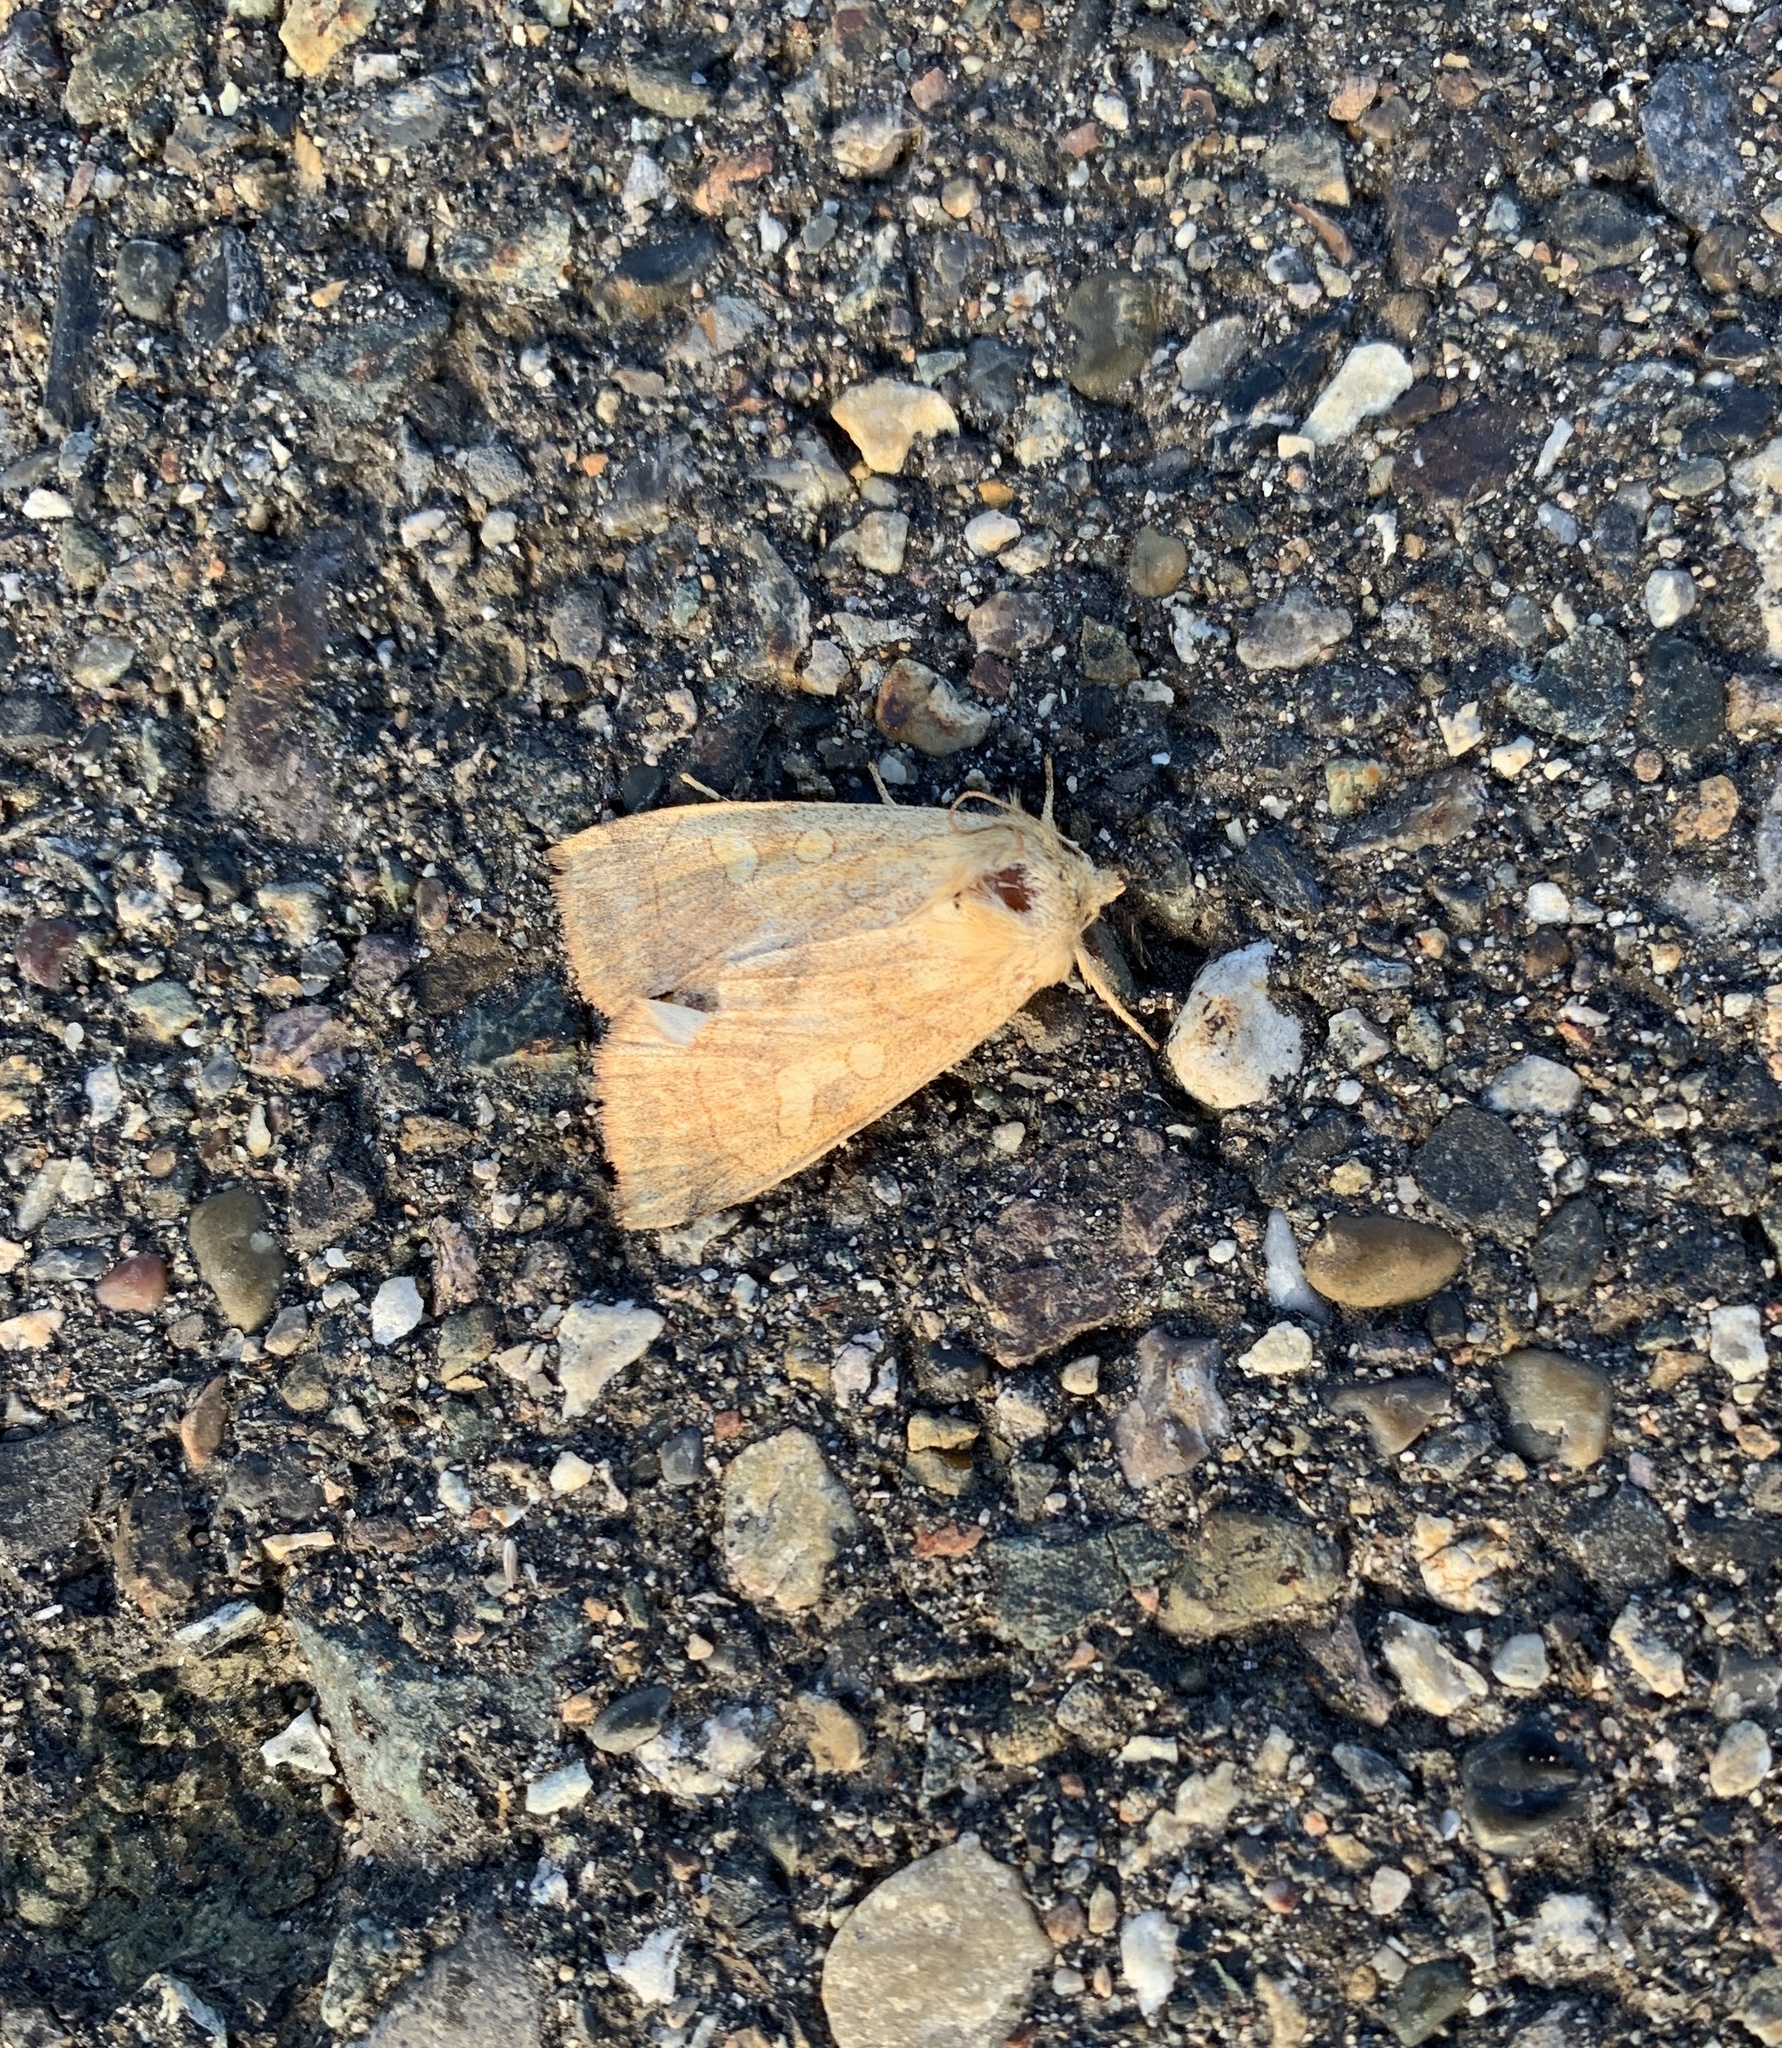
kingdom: Animalia
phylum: Arthropoda
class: Insecta
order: Lepidoptera
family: Noctuidae
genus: Enargia
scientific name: Enargia decolor
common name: Aspen twoleaf tier moth
